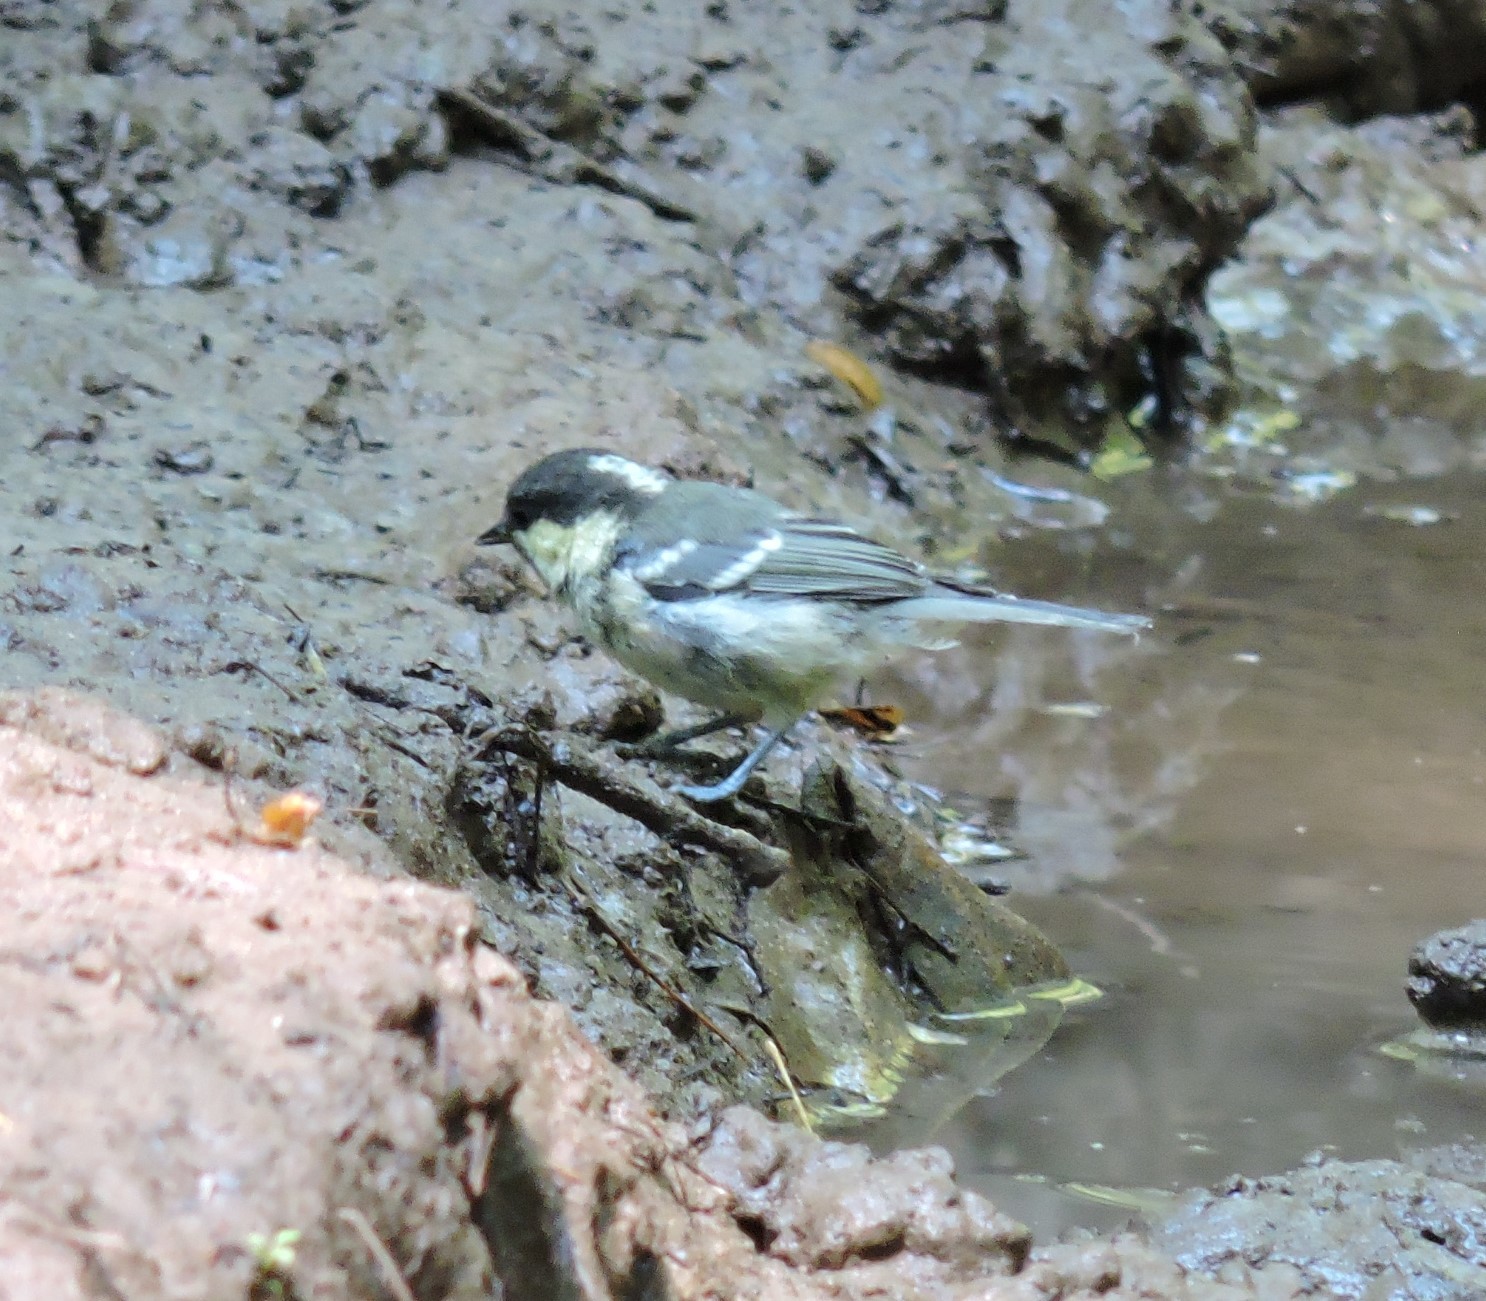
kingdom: Animalia
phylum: Chordata
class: Aves
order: Passeriformes
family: Paridae
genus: Periparus
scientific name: Periparus ater
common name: Coal tit
